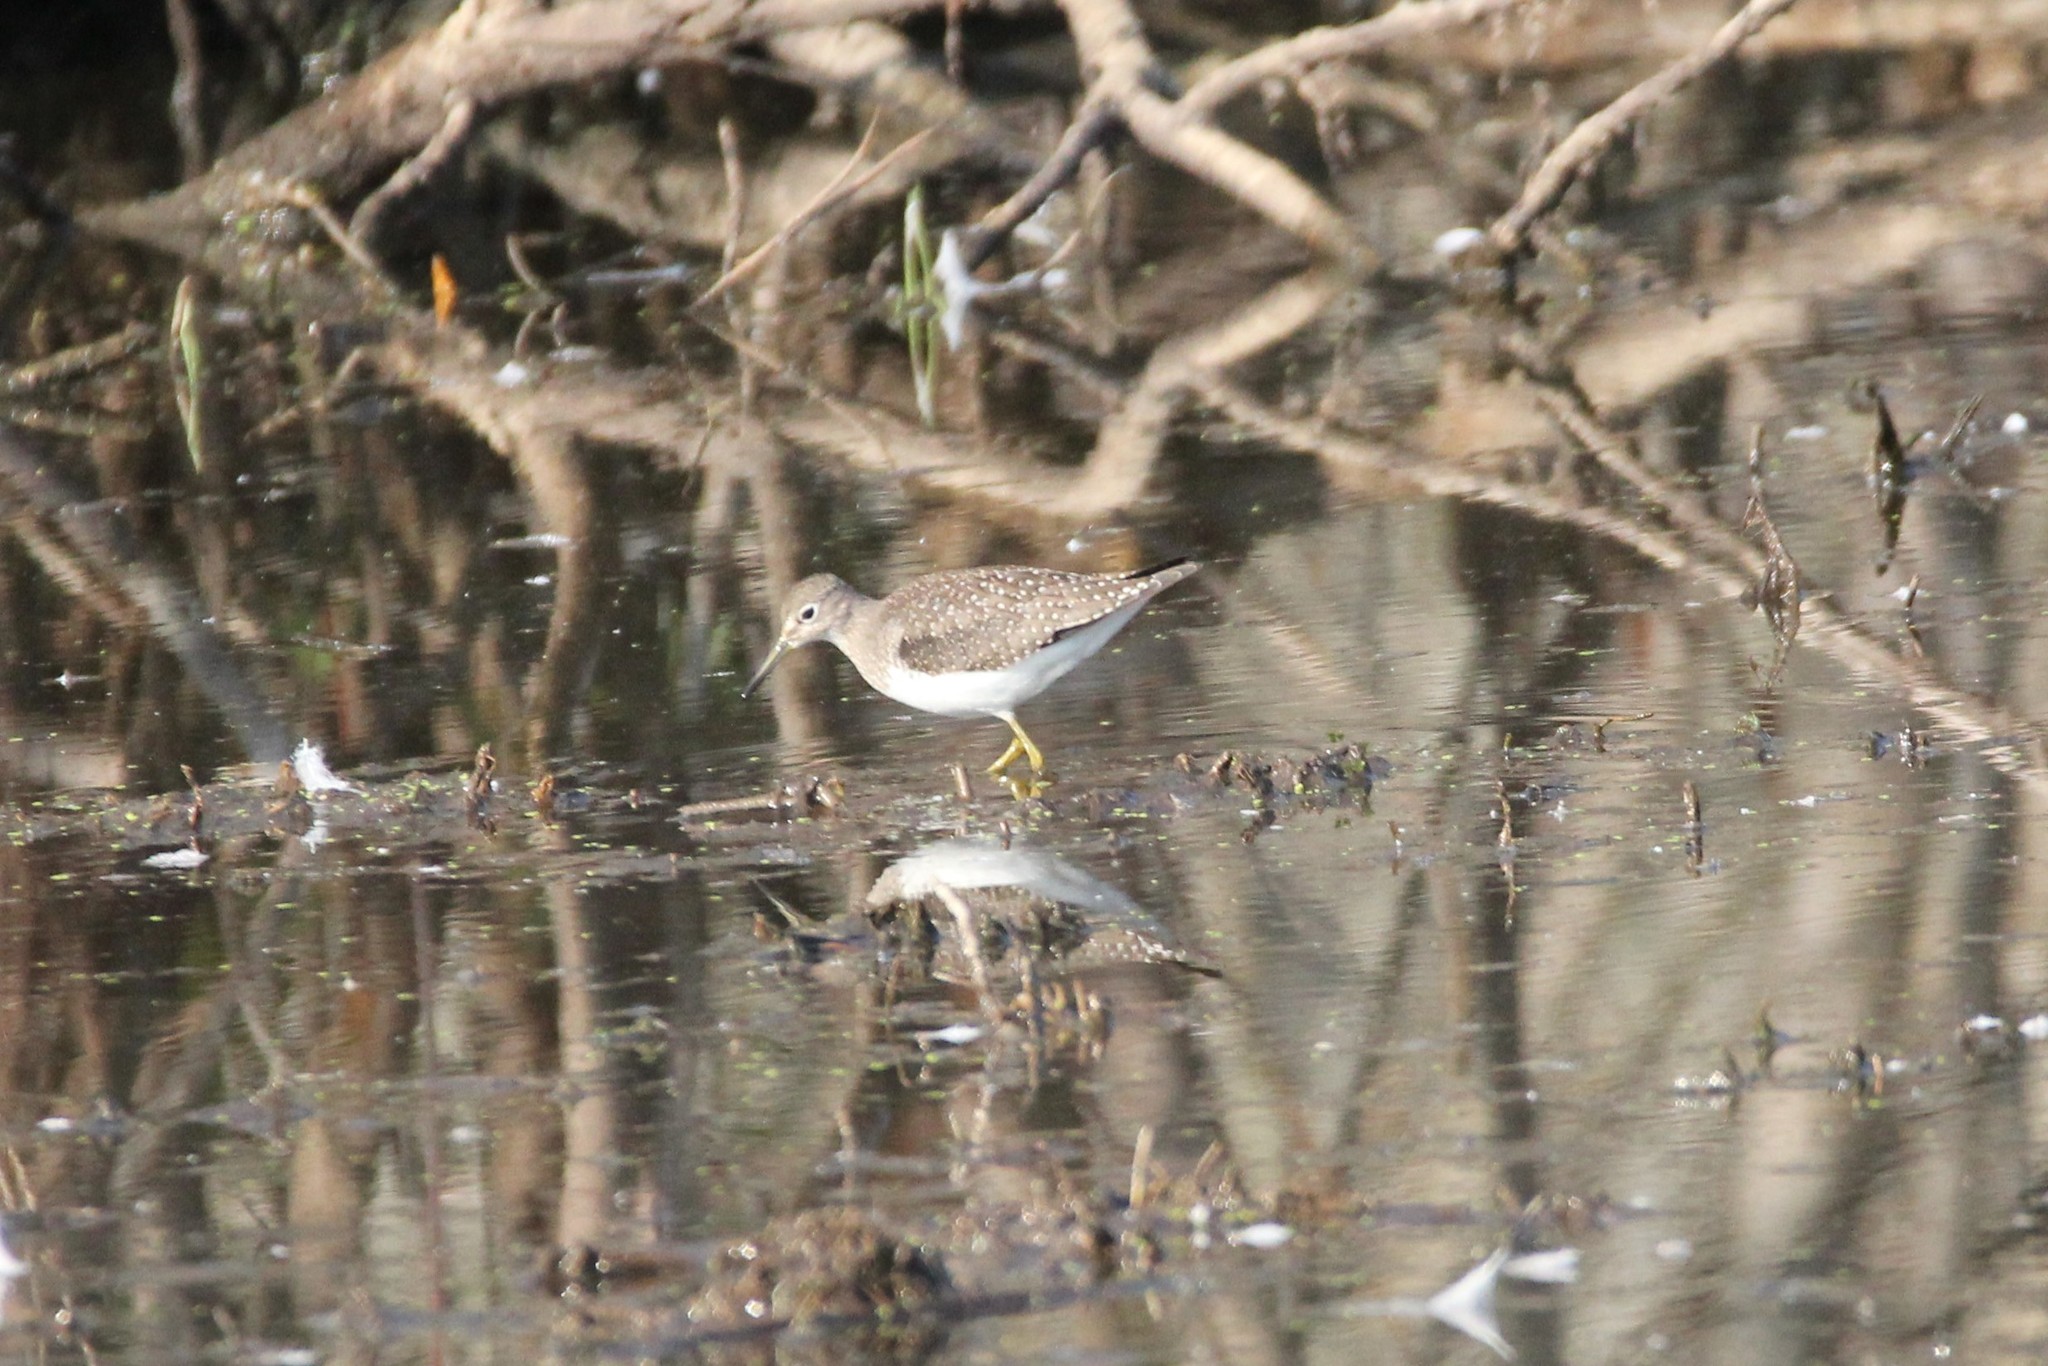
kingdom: Animalia
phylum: Chordata
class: Aves
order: Charadriiformes
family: Scolopacidae
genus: Tringa
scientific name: Tringa solitaria
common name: Solitary sandpiper
